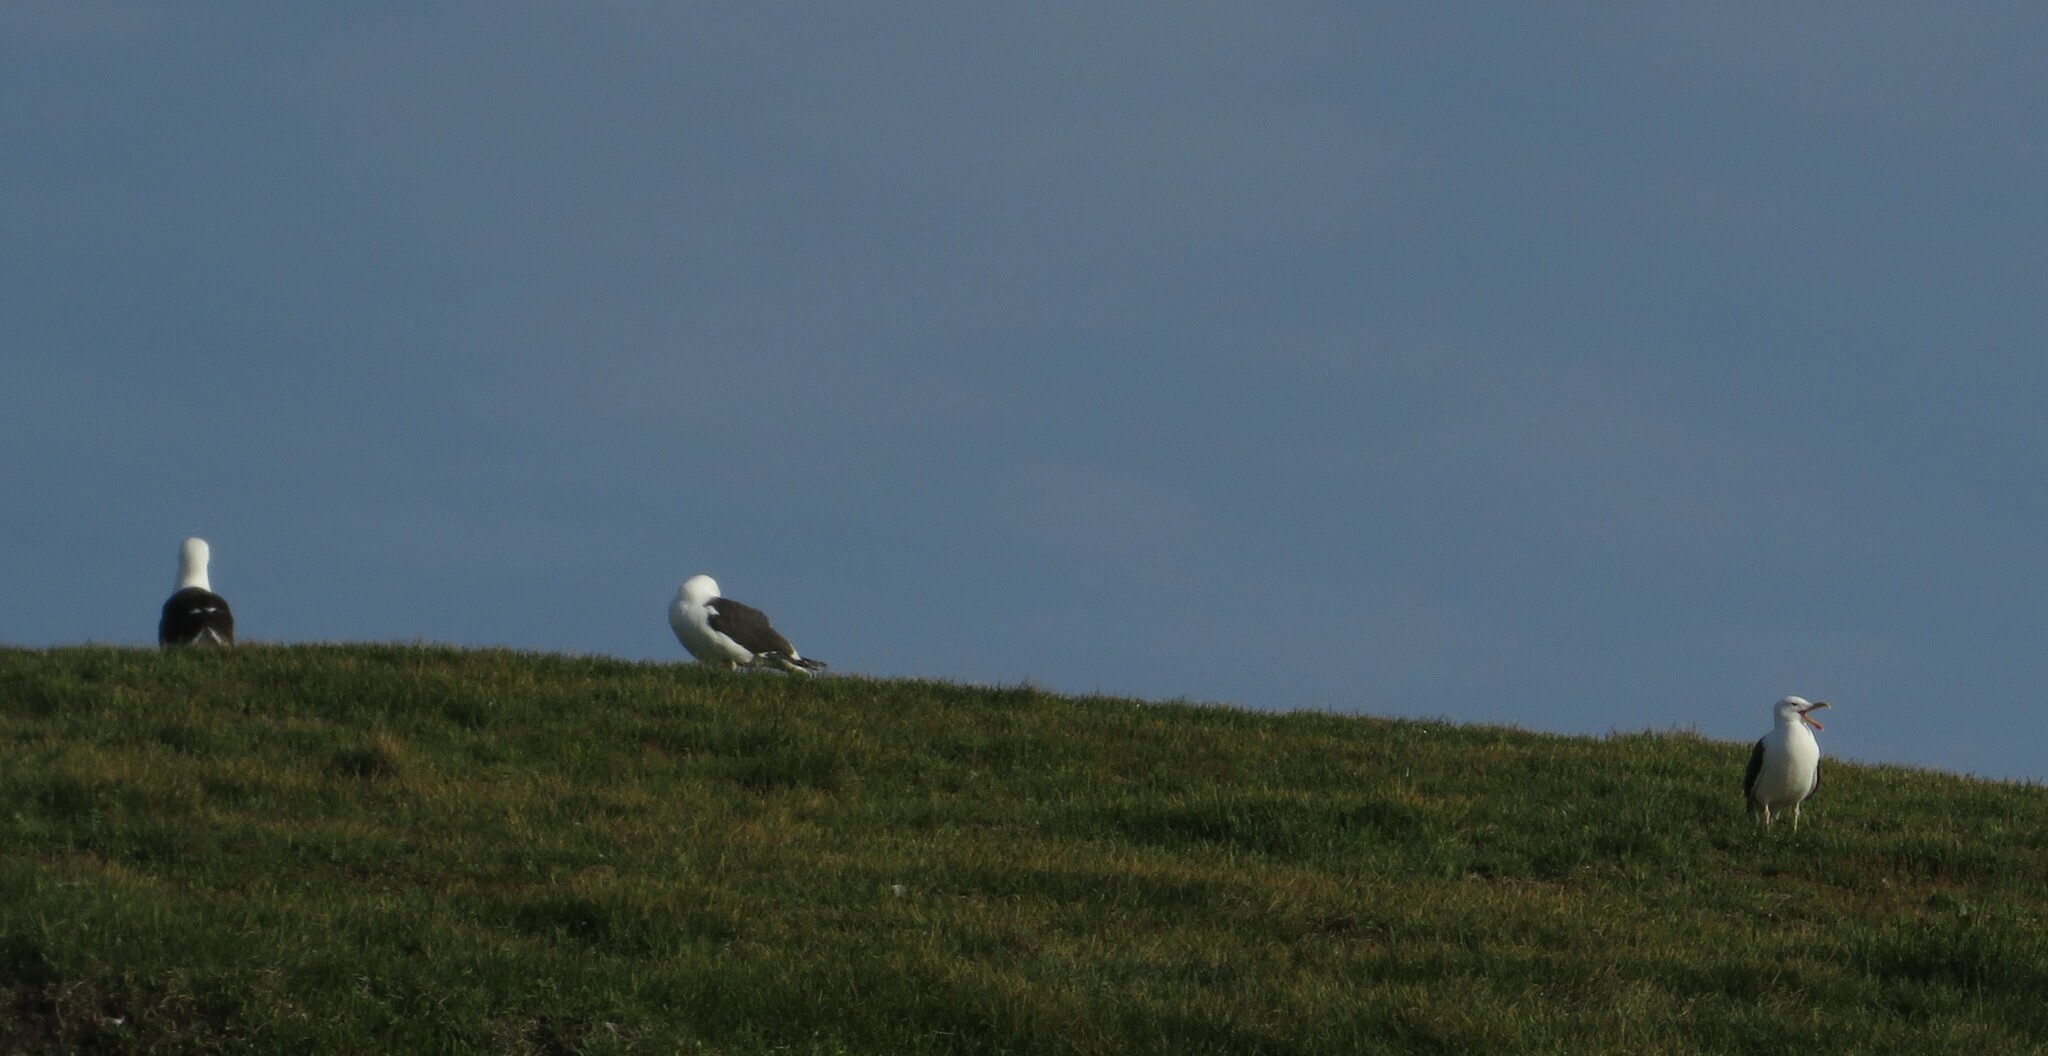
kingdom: Animalia
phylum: Chordata
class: Aves
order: Charadriiformes
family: Laridae
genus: Larus
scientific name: Larus marinus
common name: Great black-backed gull
